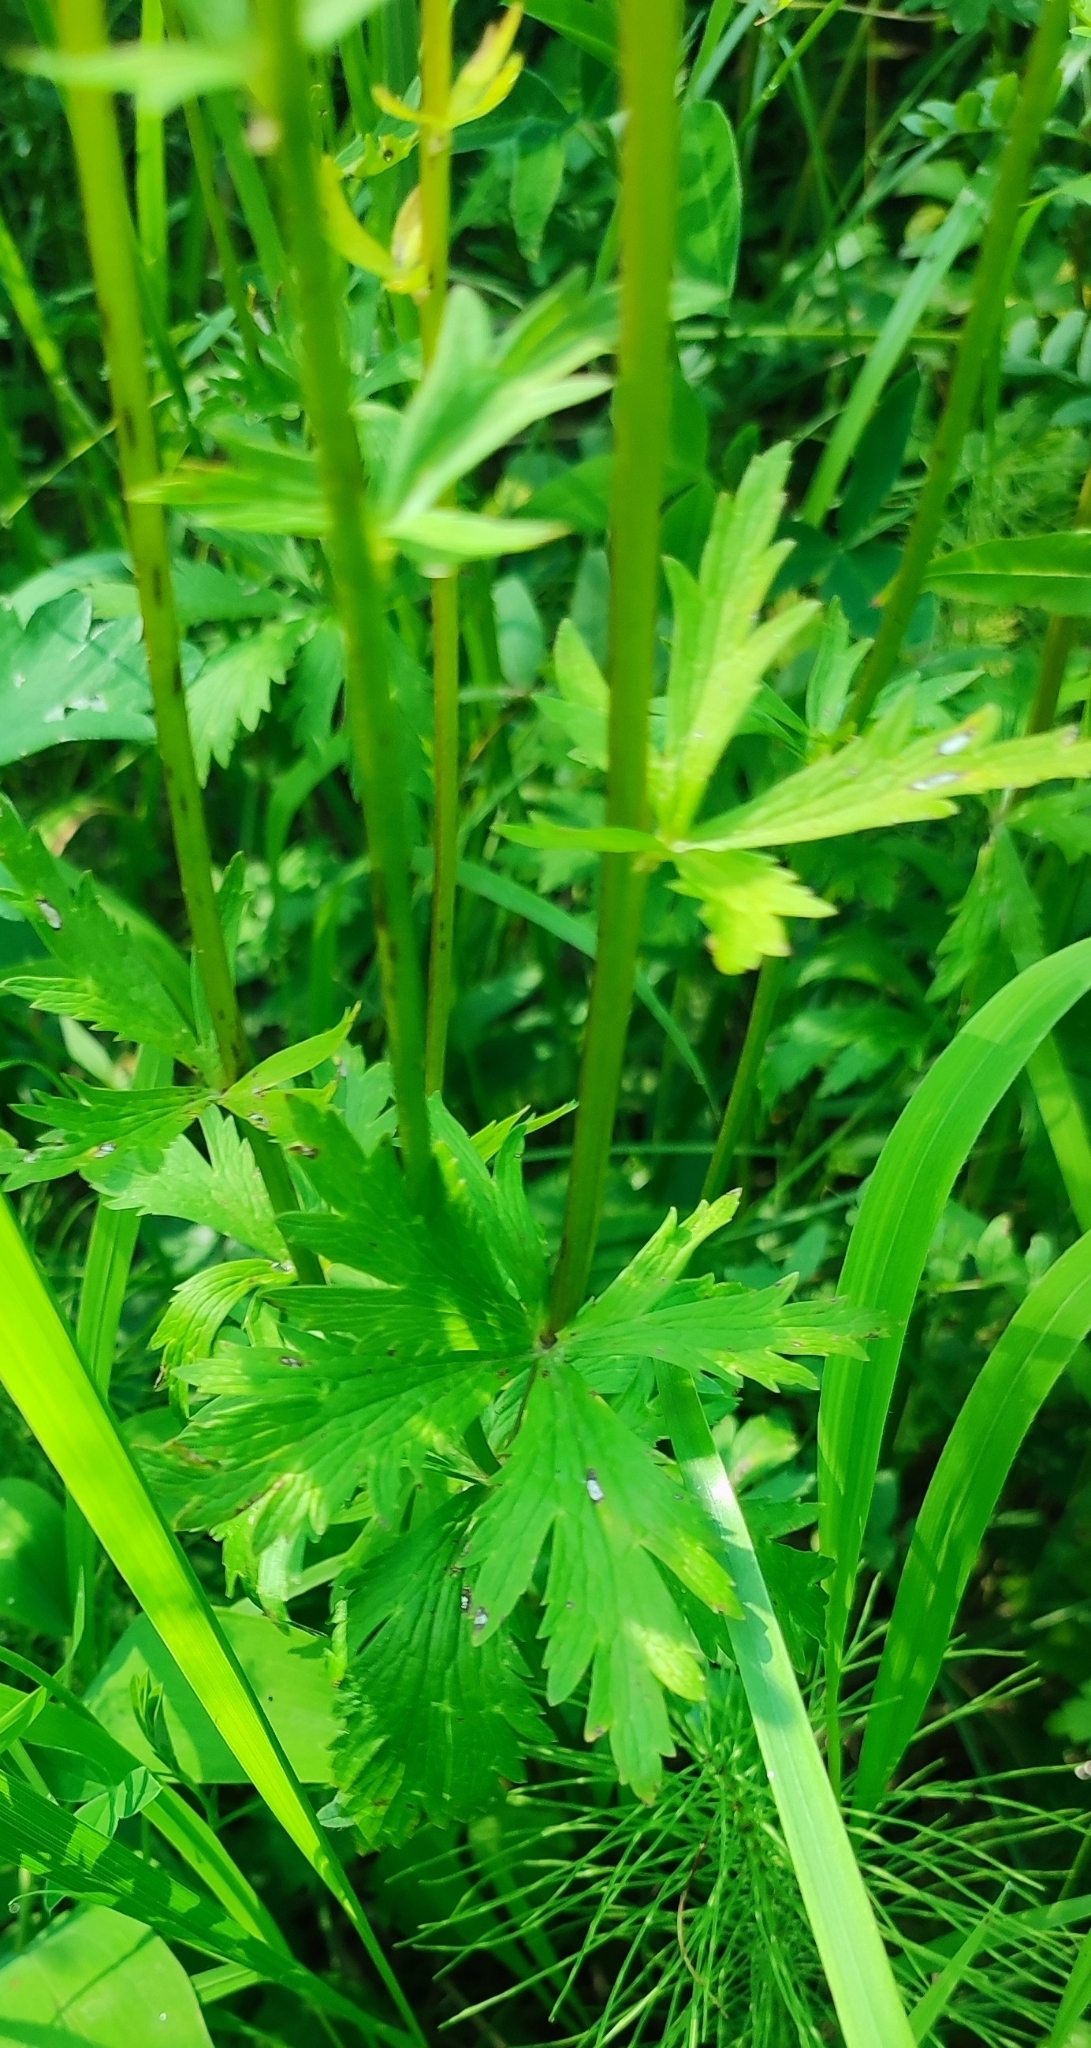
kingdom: Plantae
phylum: Tracheophyta
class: Magnoliopsida
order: Ranunculales
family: Ranunculaceae
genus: Trollius
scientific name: Trollius europaeus
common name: European globeflower
